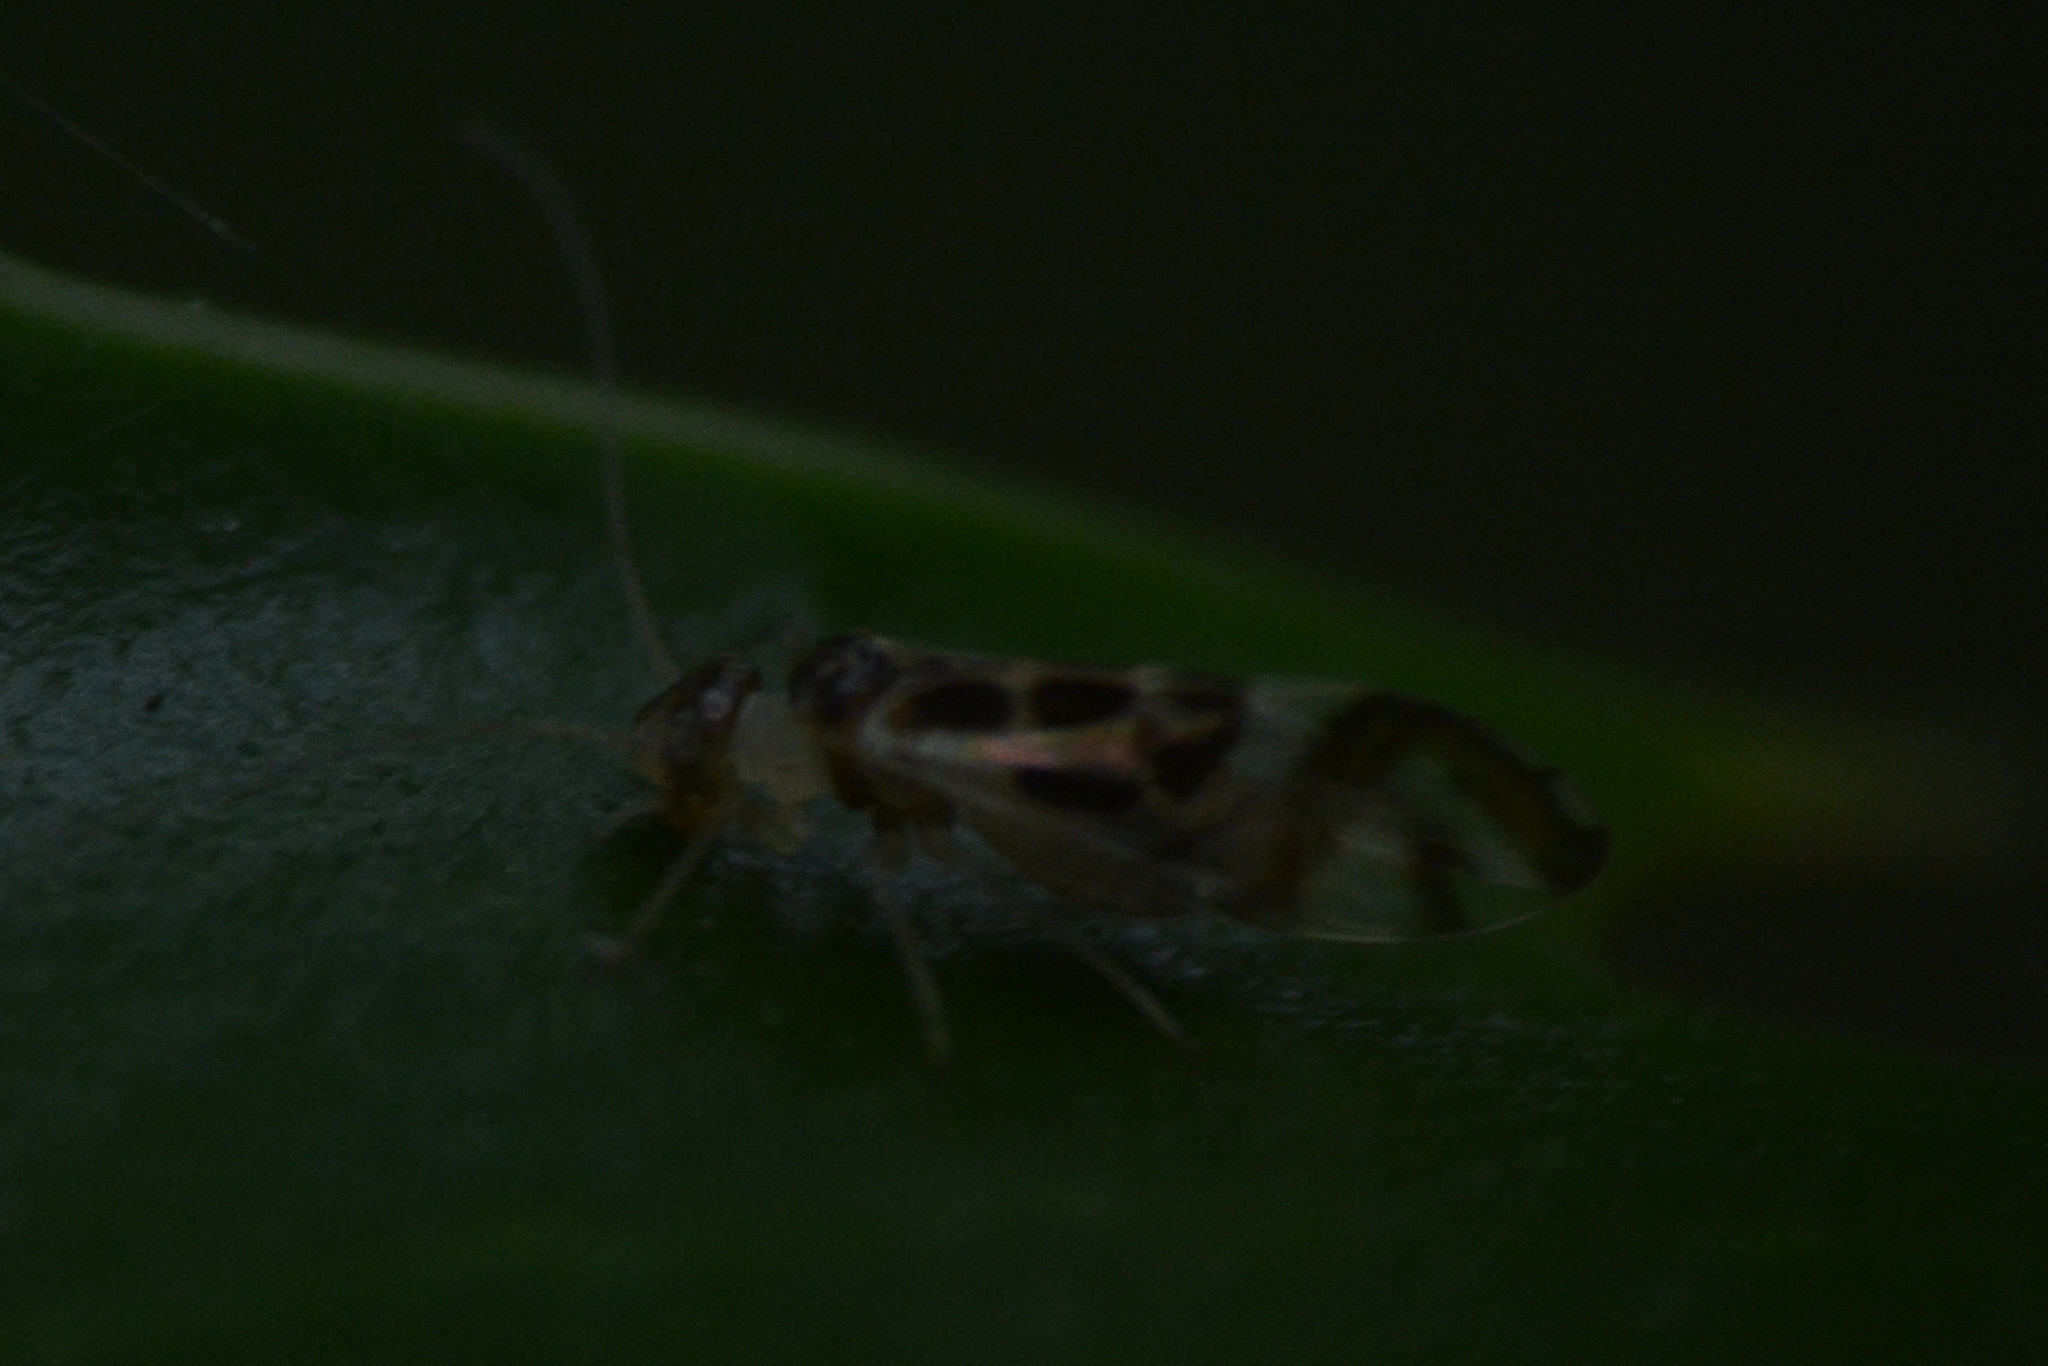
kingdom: Animalia
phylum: Arthropoda
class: Insecta
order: Psocodea
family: Stenopsocidae
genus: Graphopsocus
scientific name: Graphopsocus cruciatus
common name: Lizard bark louse
